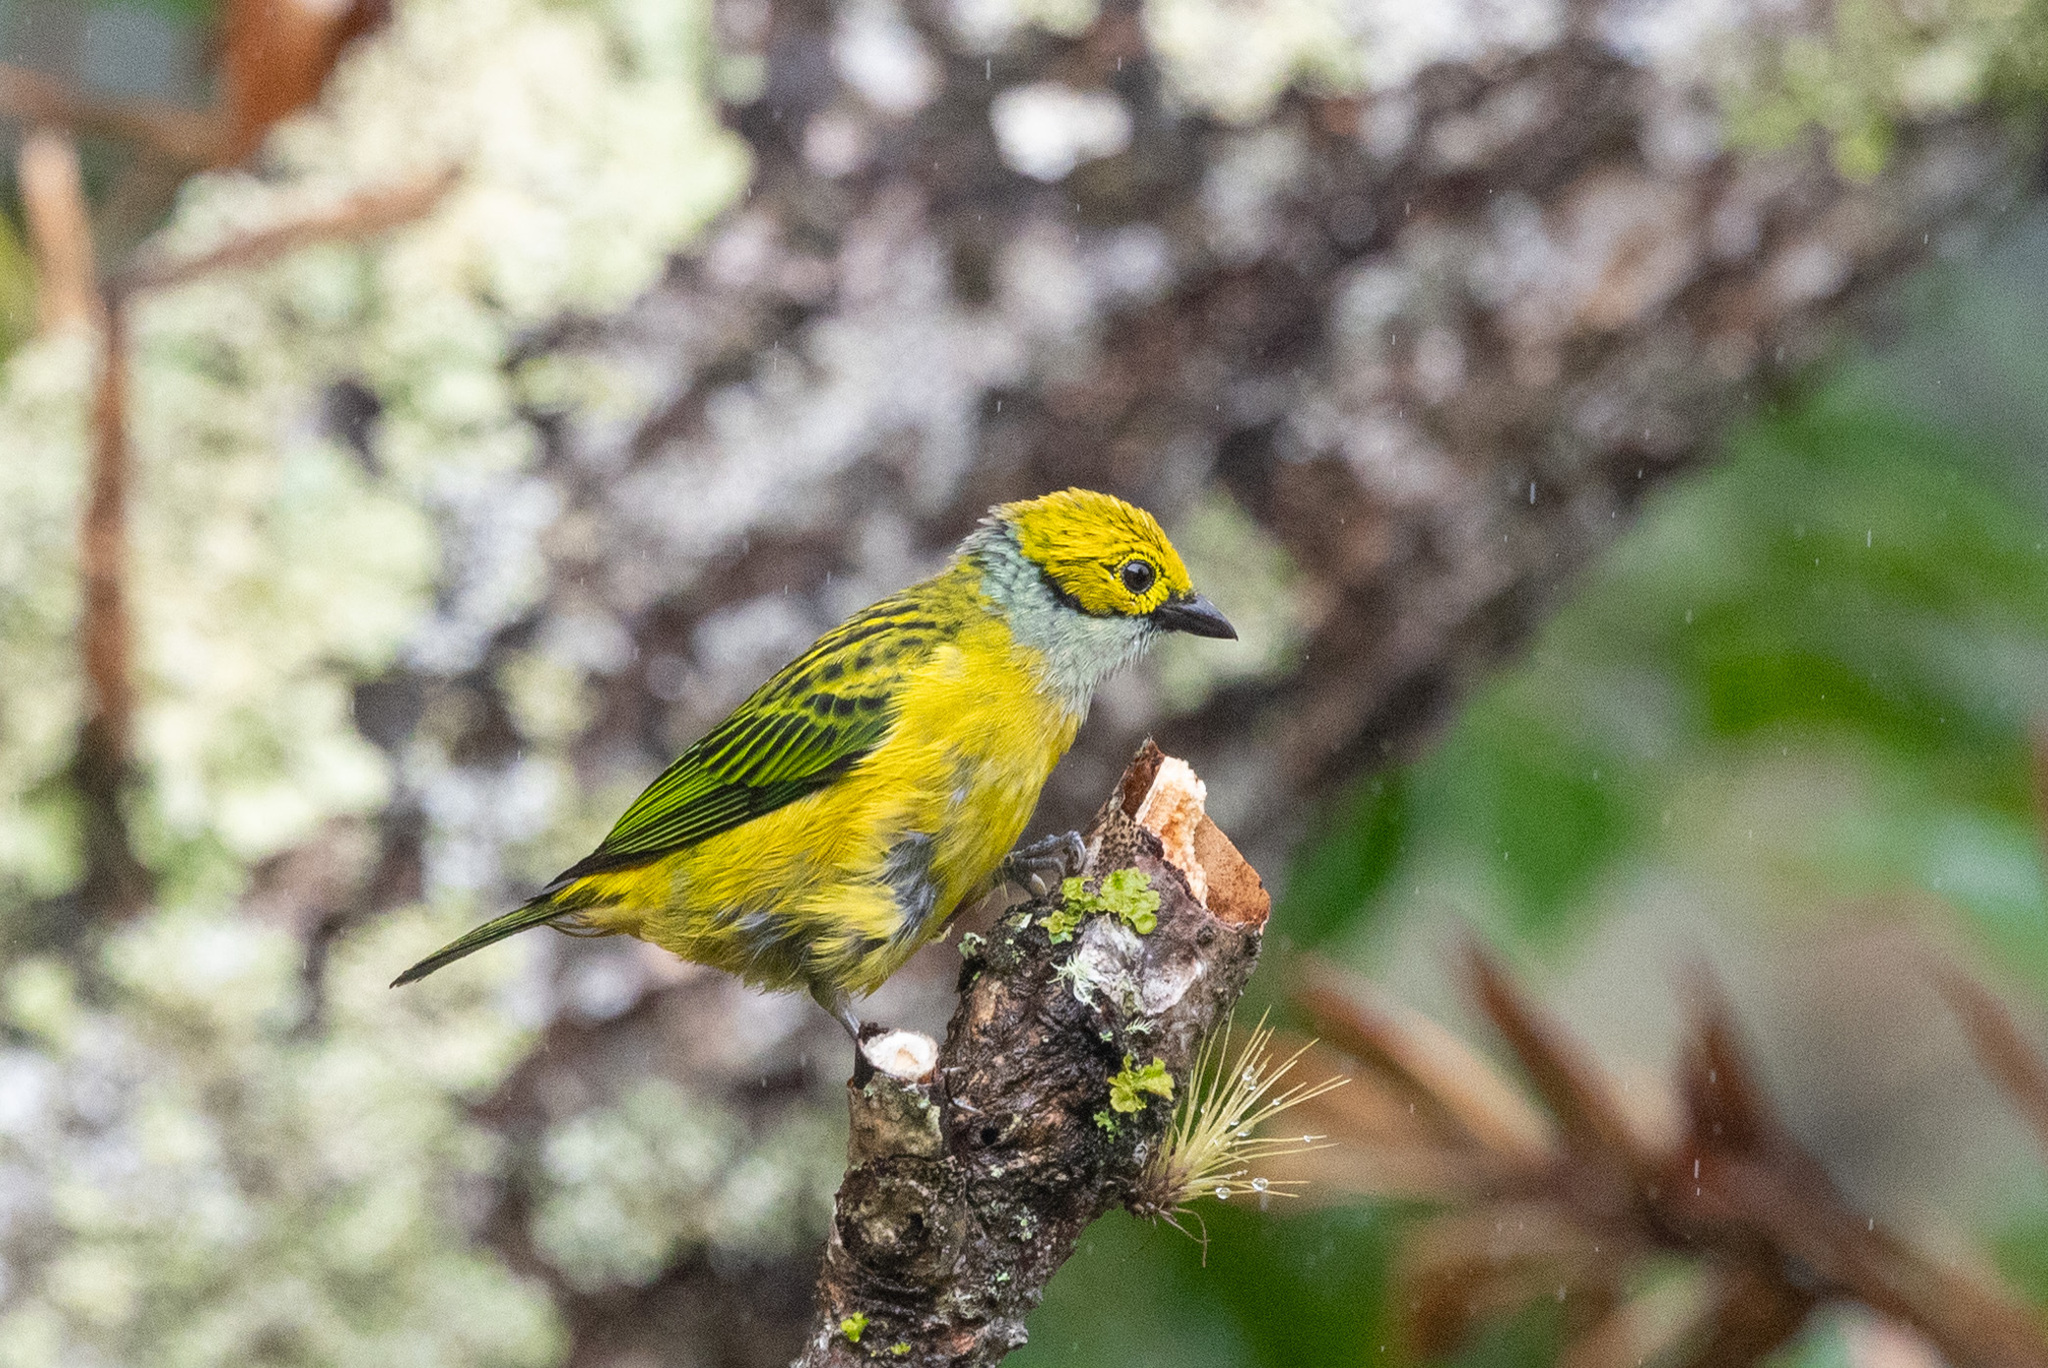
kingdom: Animalia
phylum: Chordata
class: Aves
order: Passeriformes
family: Thraupidae
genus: Tangara
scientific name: Tangara icterocephala
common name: Silver-throated tanager
